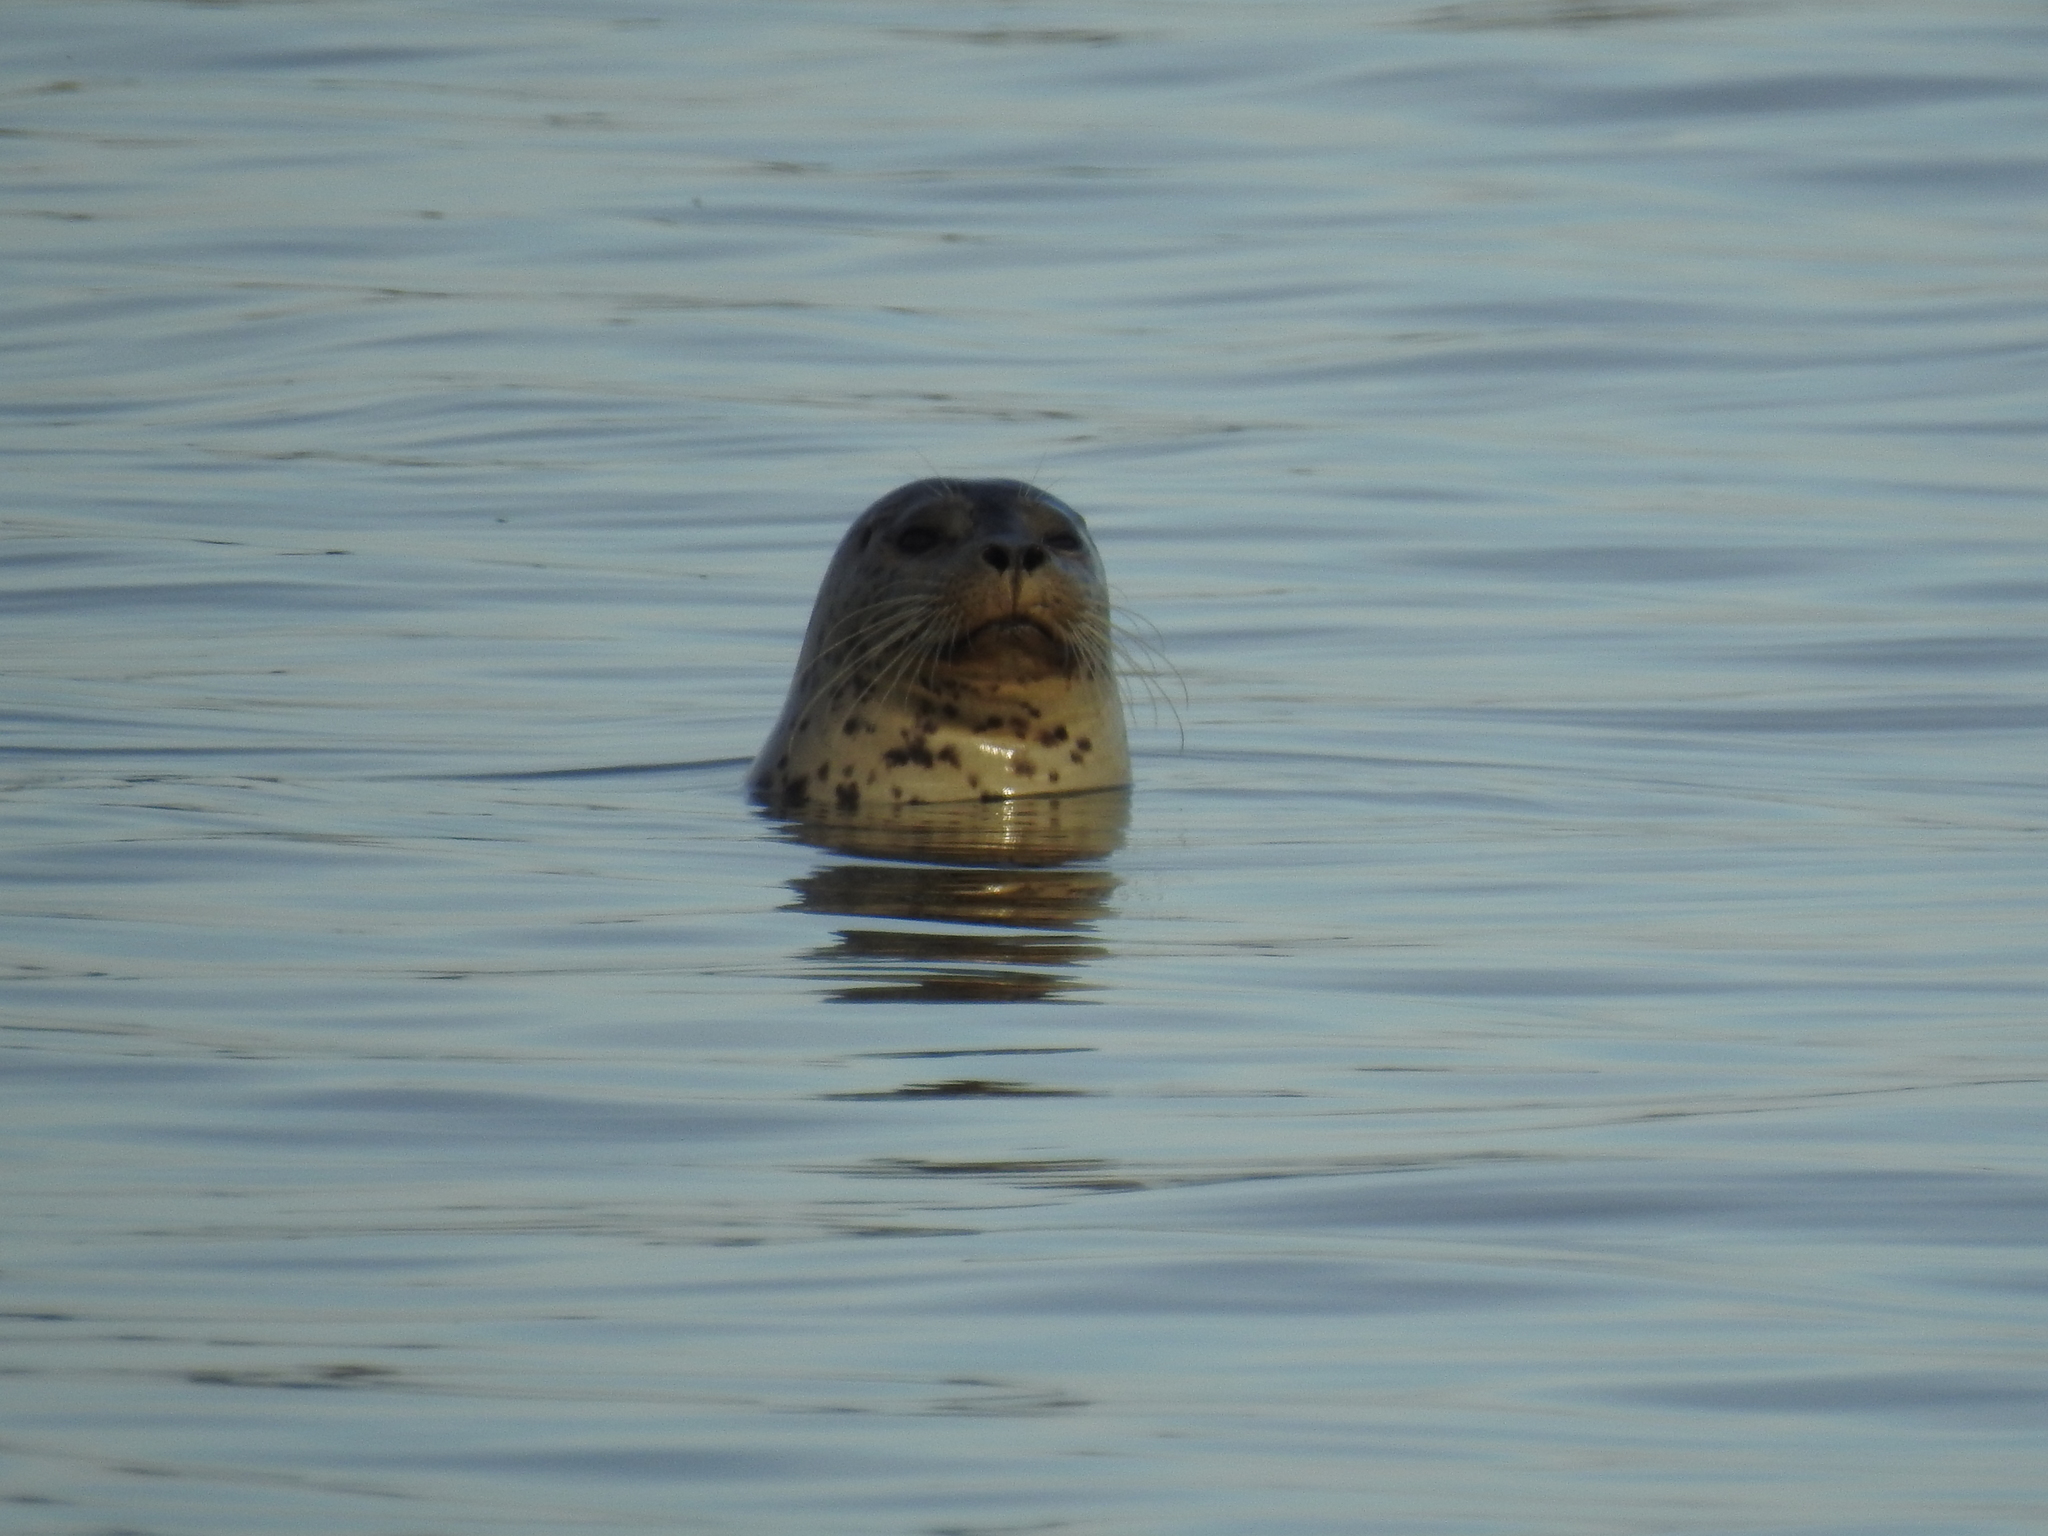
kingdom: Animalia
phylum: Chordata
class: Mammalia
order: Carnivora
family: Phocidae
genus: Phoca
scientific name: Phoca vitulina
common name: Harbor seal
